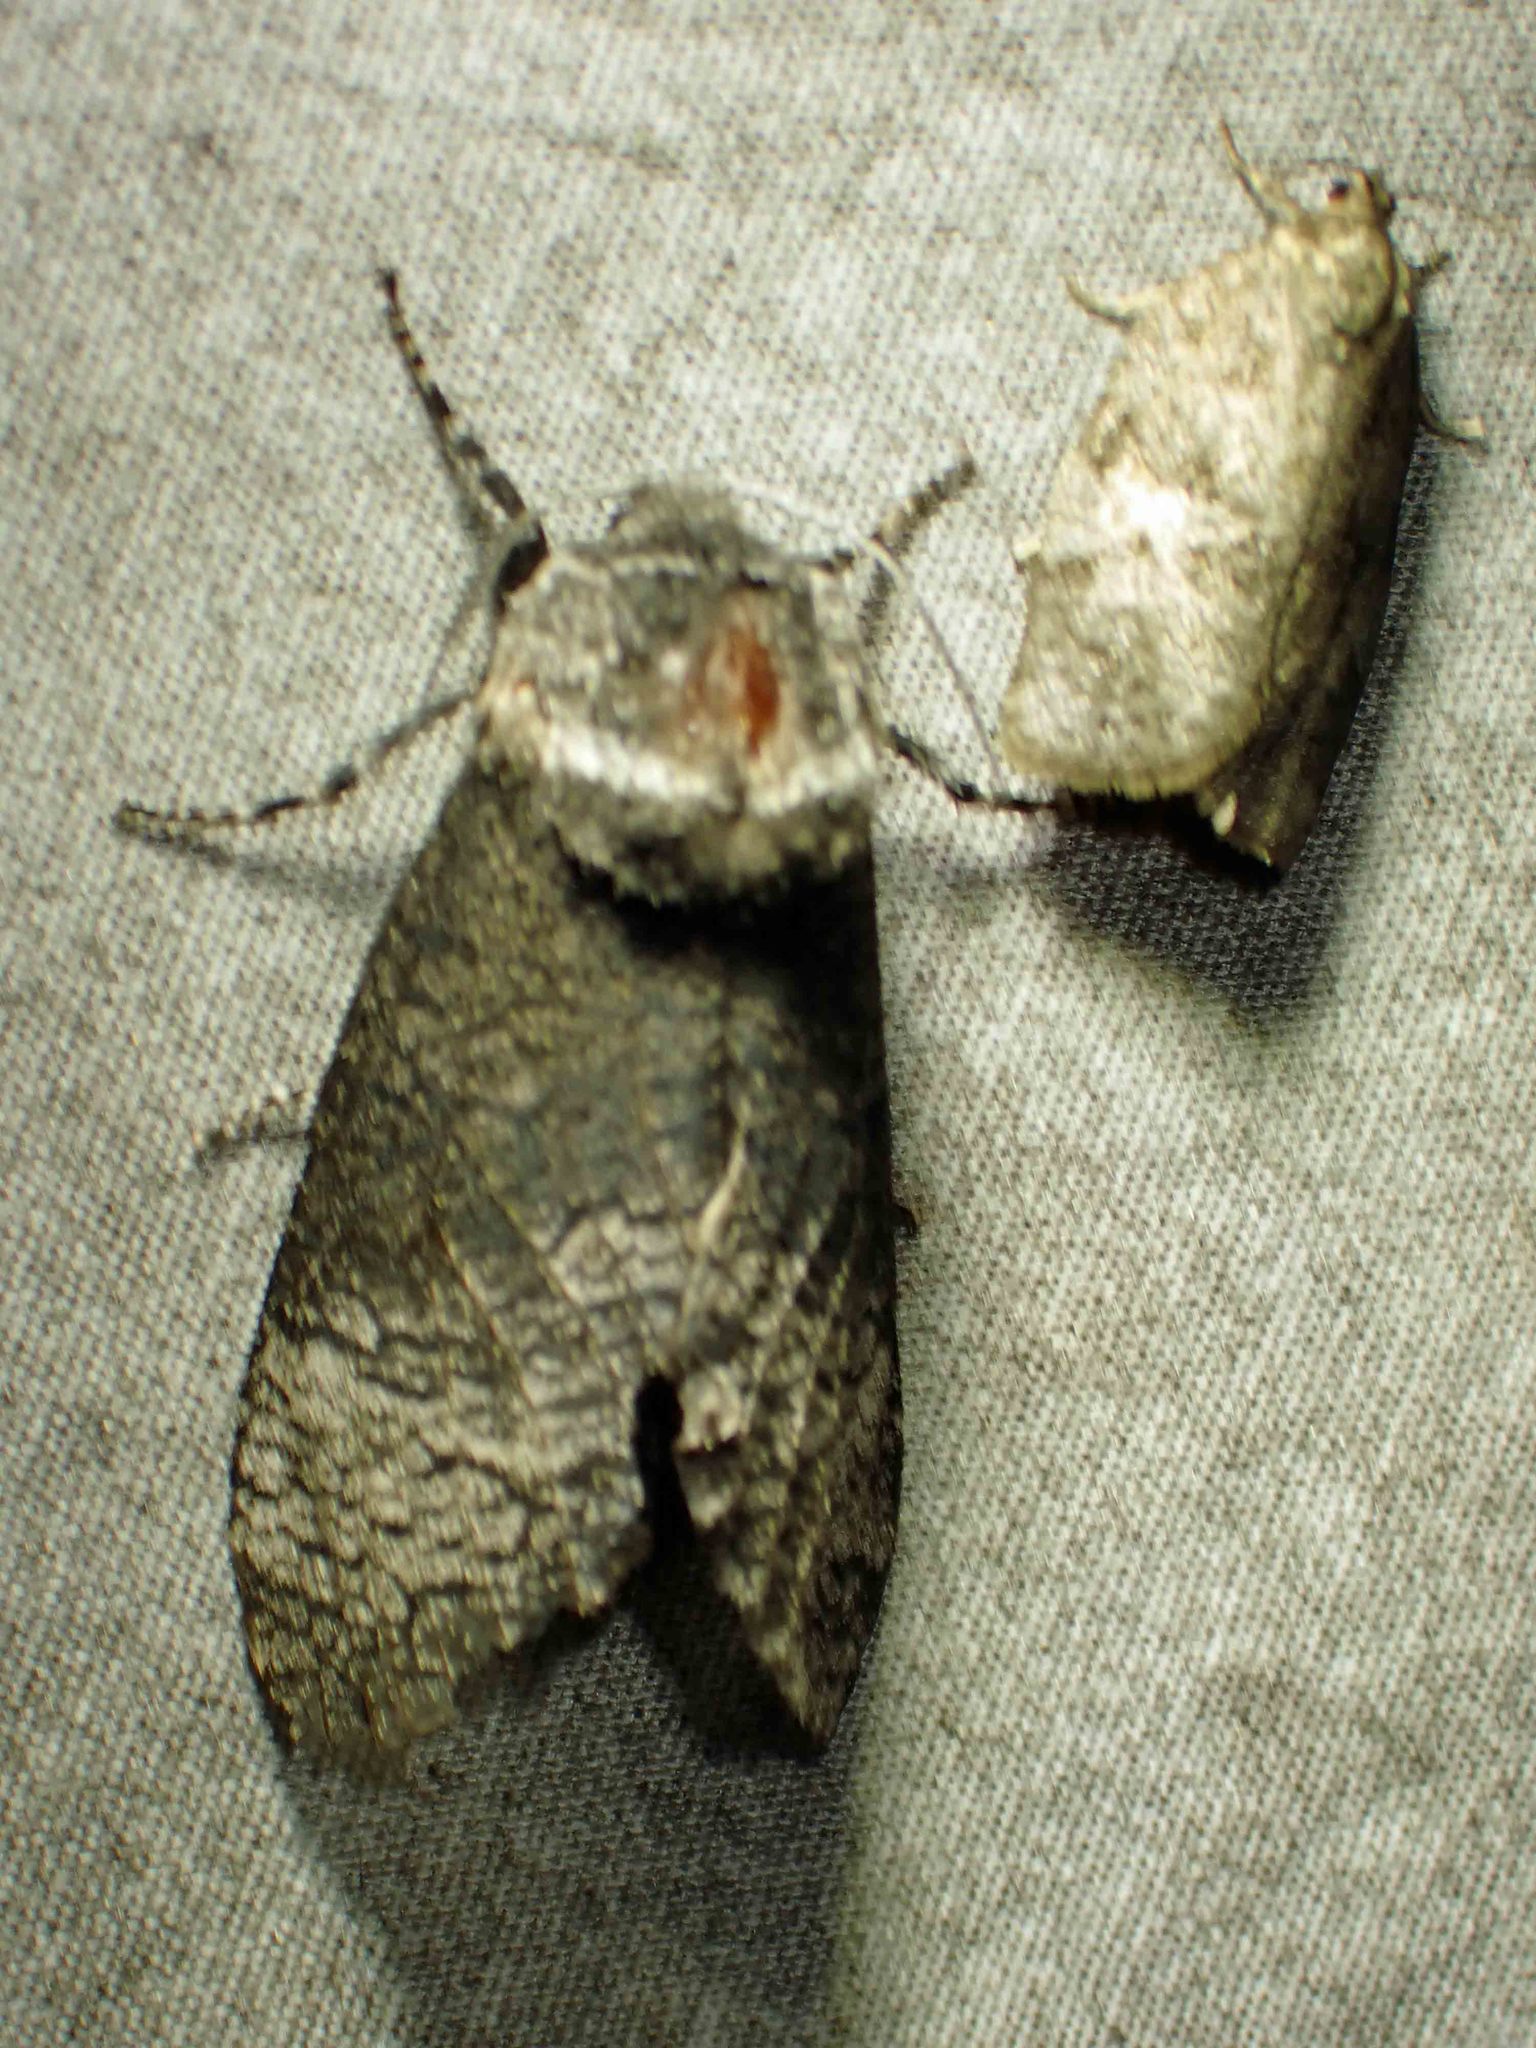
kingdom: Animalia
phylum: Arthropoda
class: Insecta
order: Lepidoptera
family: Cossidae
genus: Acossus
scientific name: Acossus centerensis
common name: Poplar carpenterworm moth
